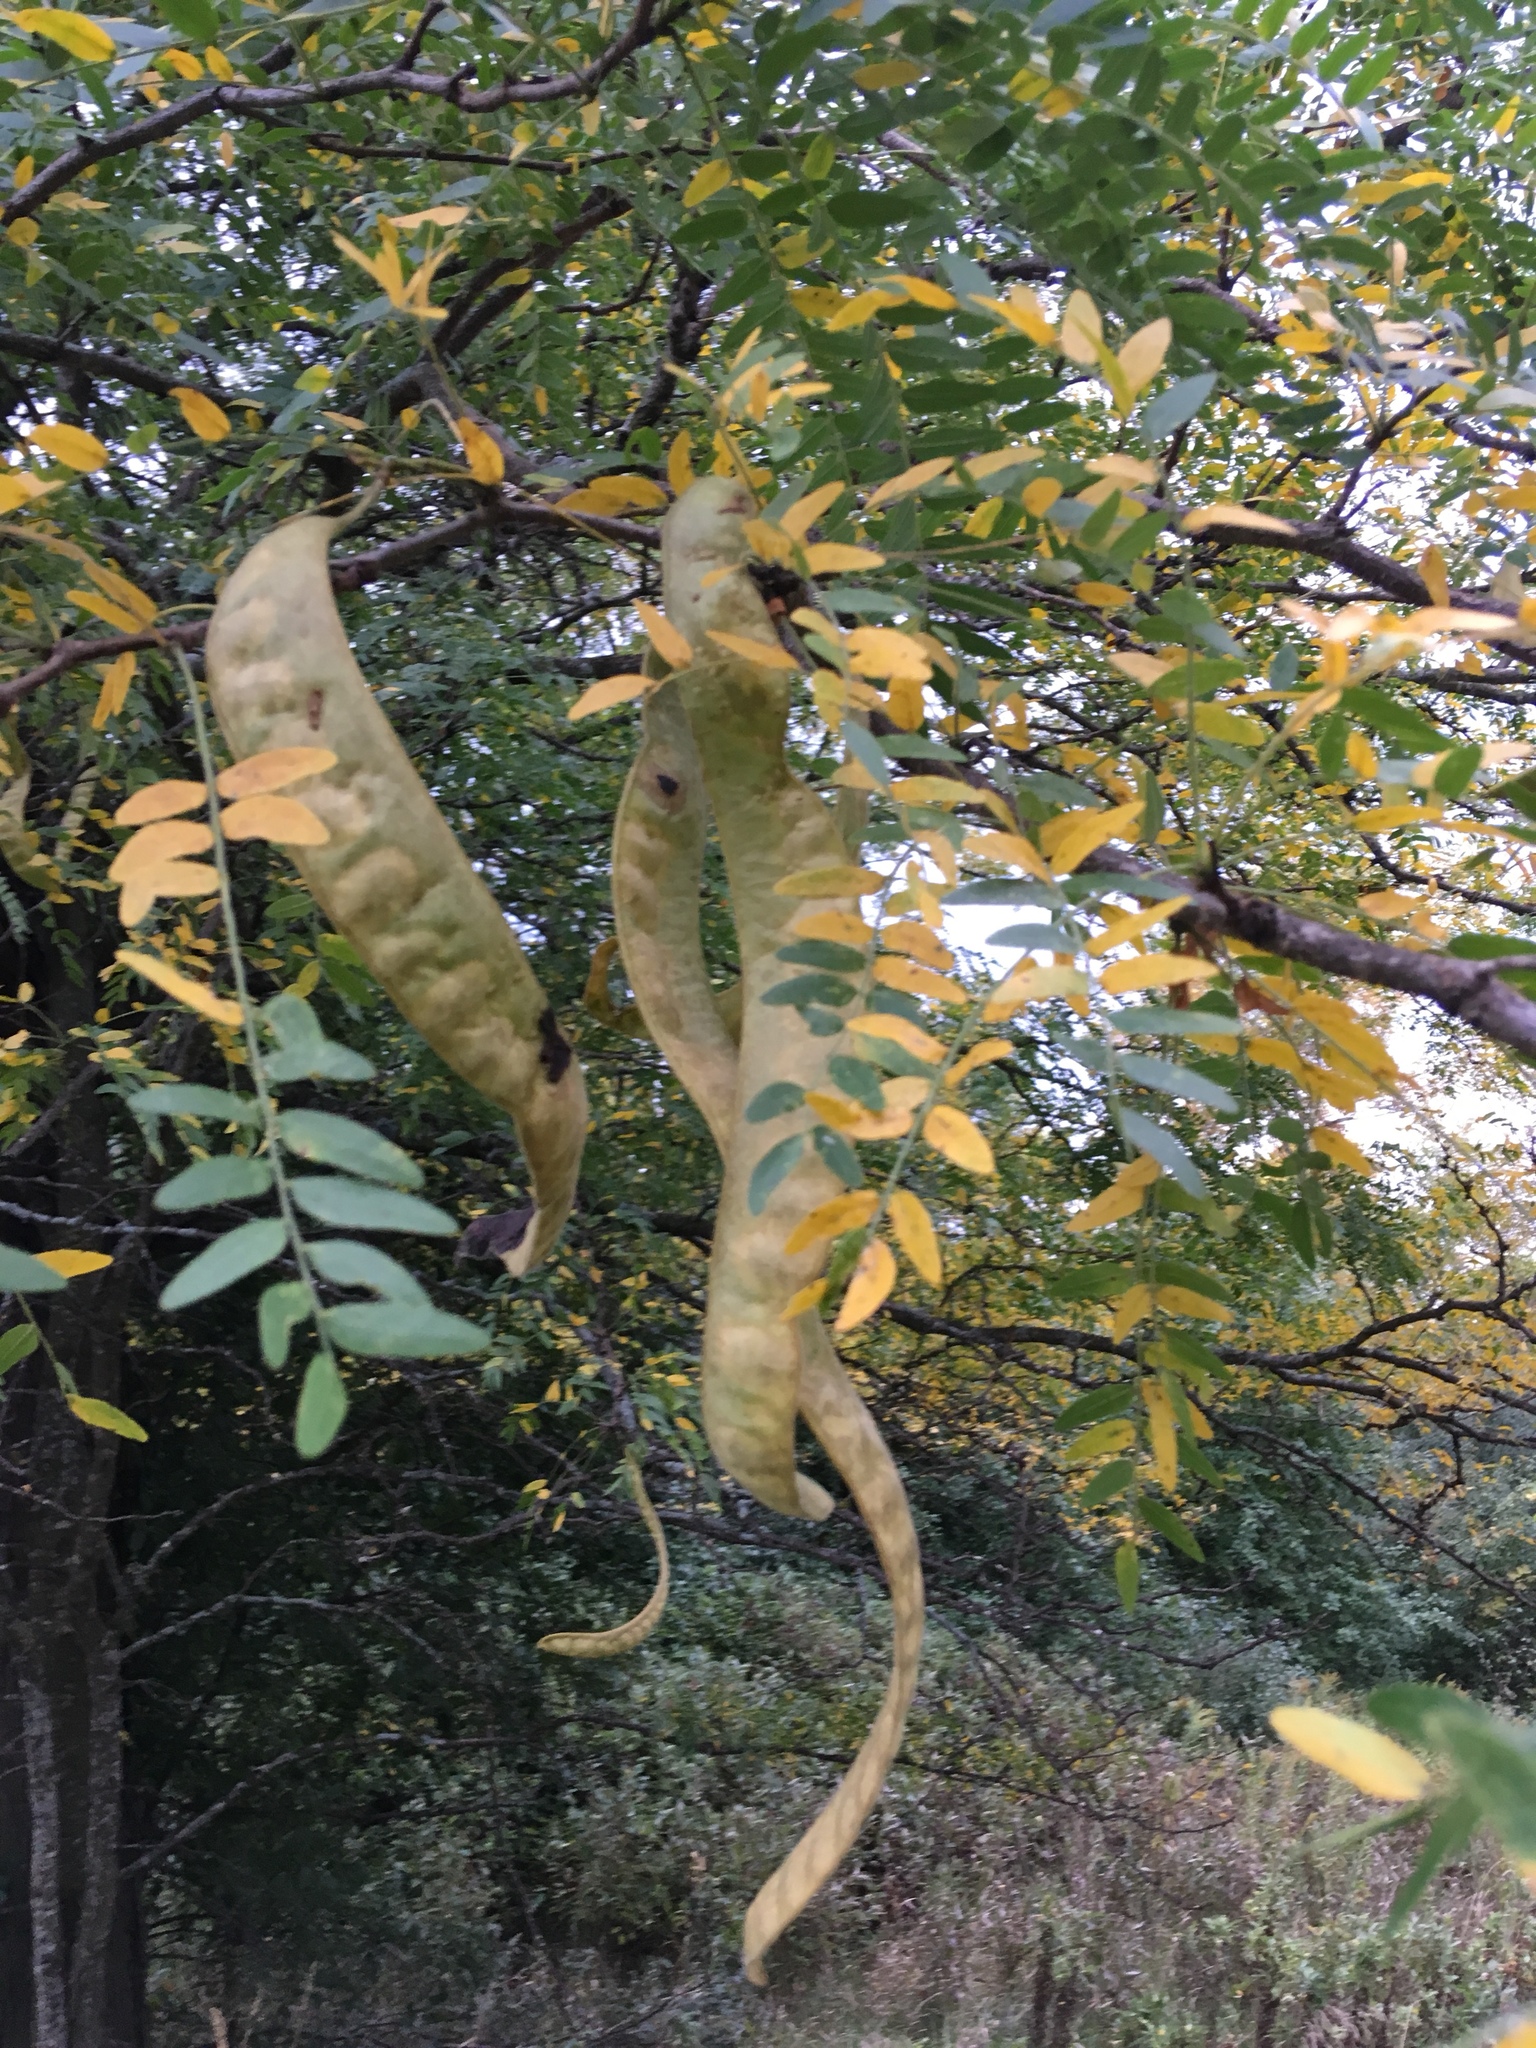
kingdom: Plantae
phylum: Tracheophyta
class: Magnoliopsida
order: Fabales
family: Fabaceae
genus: Gleditsia
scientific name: Gleditsia triacanthos
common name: Common honeylocust
